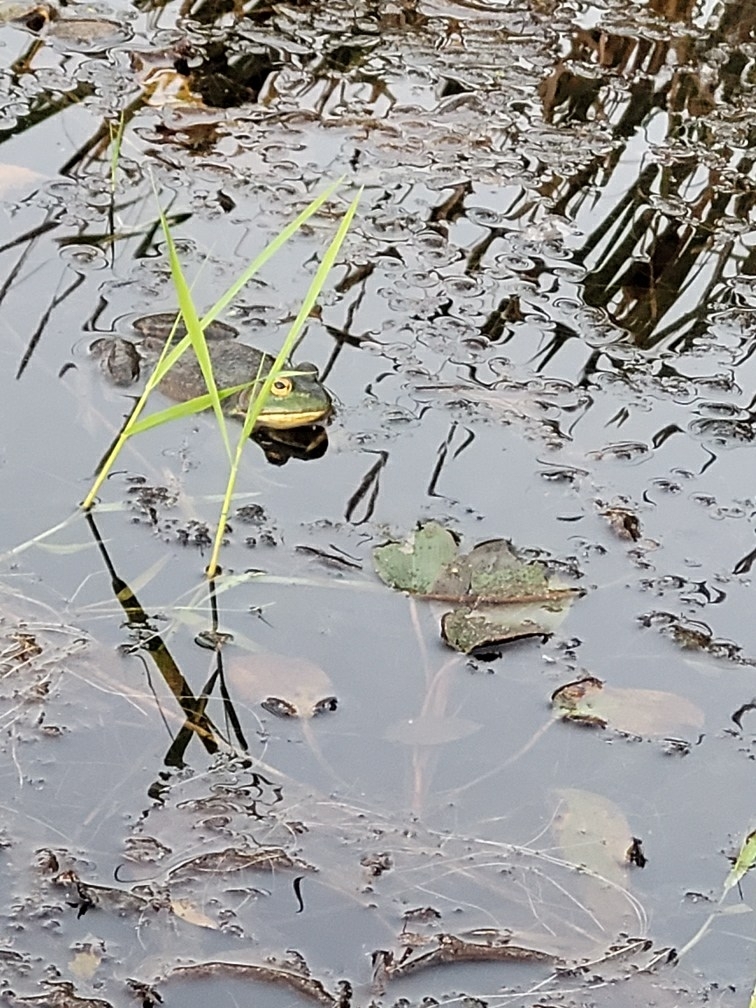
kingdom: Animalia
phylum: Chordata
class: Amphibia
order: Anura
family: Ranidae
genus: Lithobates
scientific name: Lithobates catesbeianus
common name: American bullfrog
